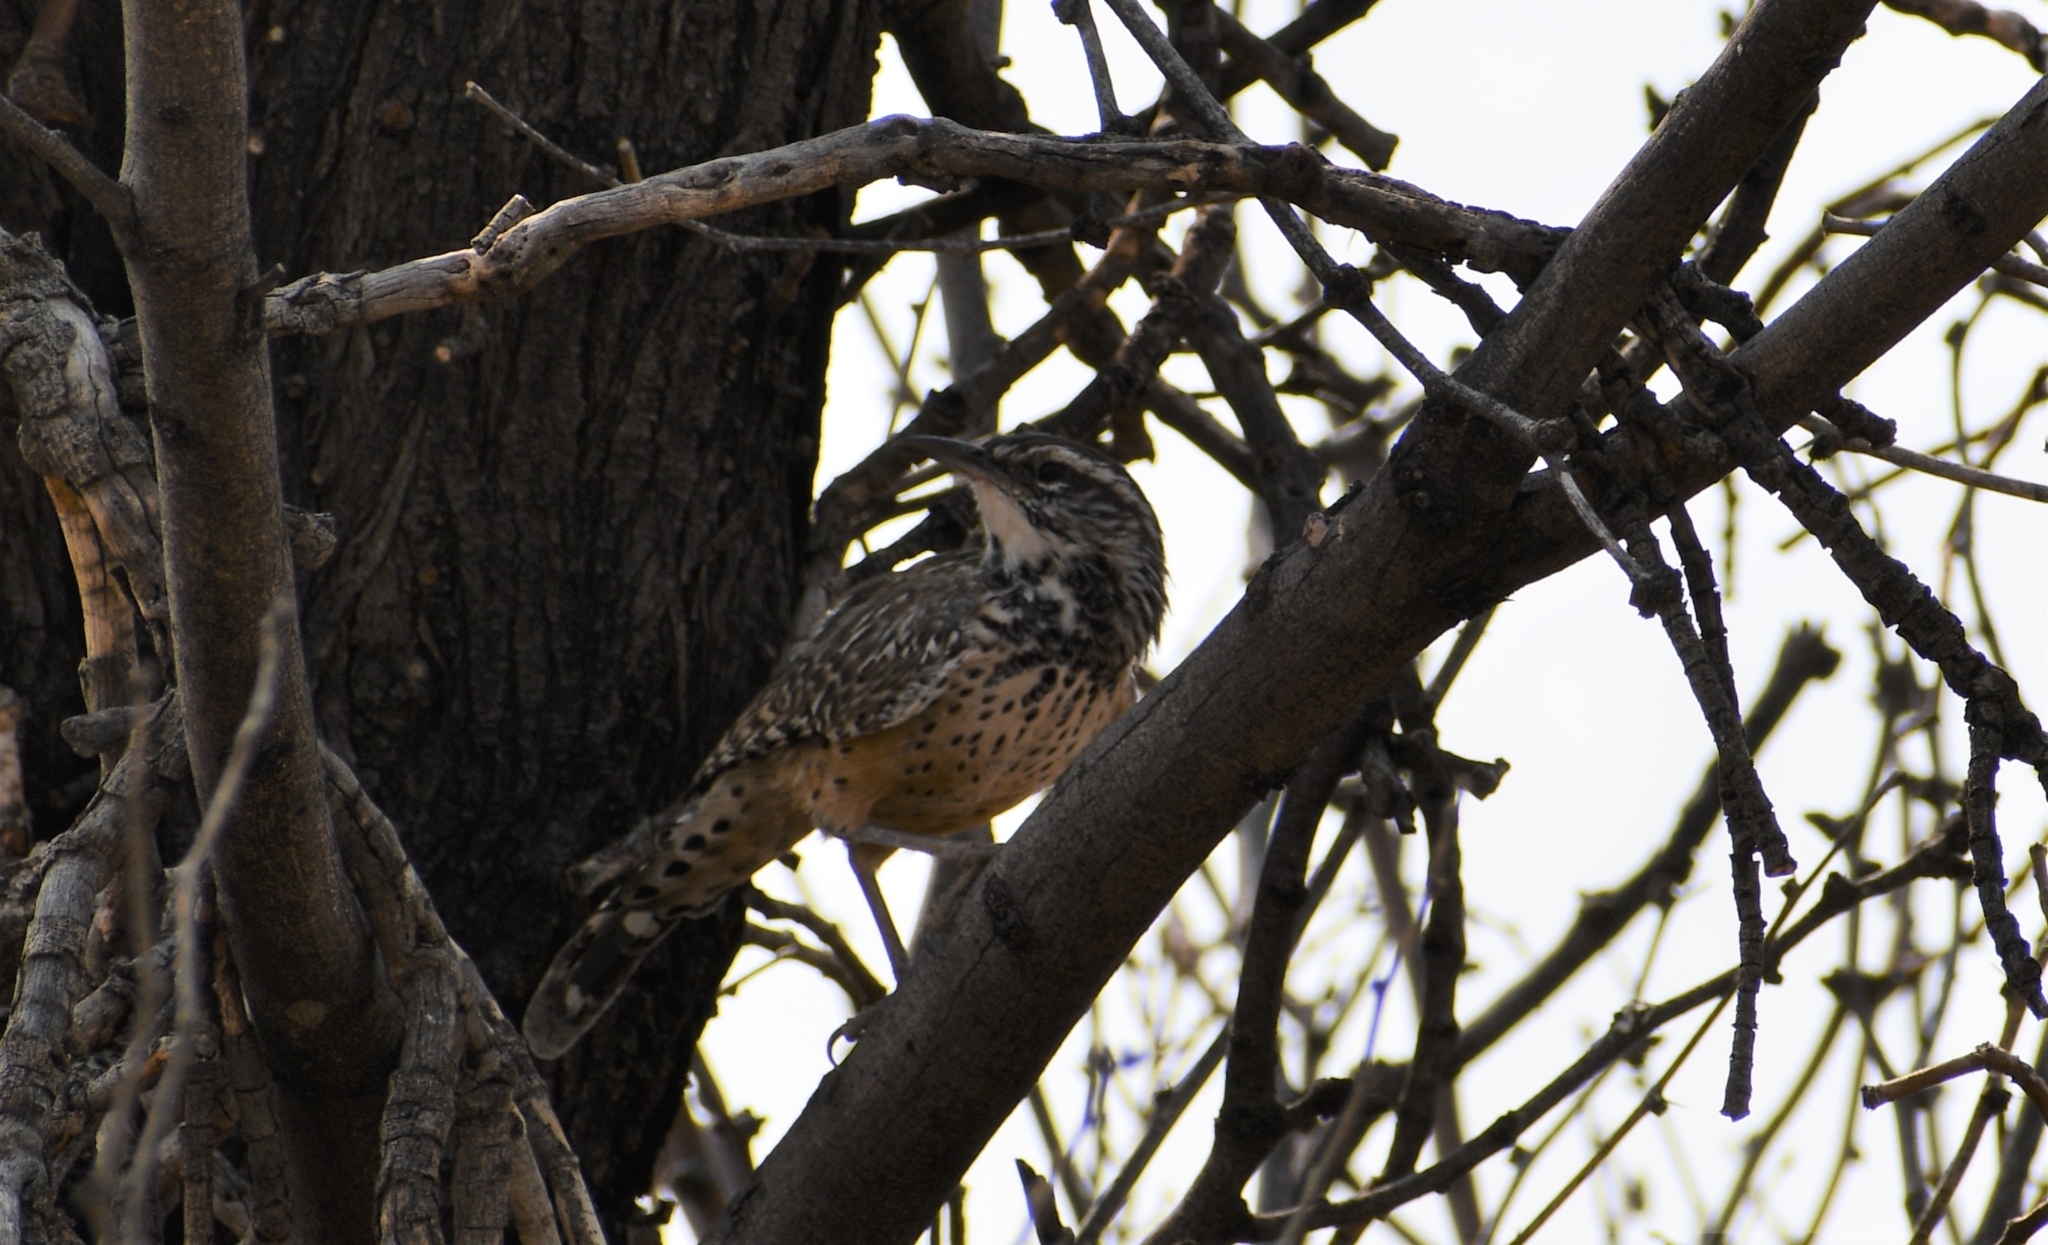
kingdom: Animalia
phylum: Chordata
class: Aves
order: Passeriformes
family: Troglodytidae
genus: Campylorhynchus
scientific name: Campylorhynchus brunneicapillus
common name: Cactus wren
